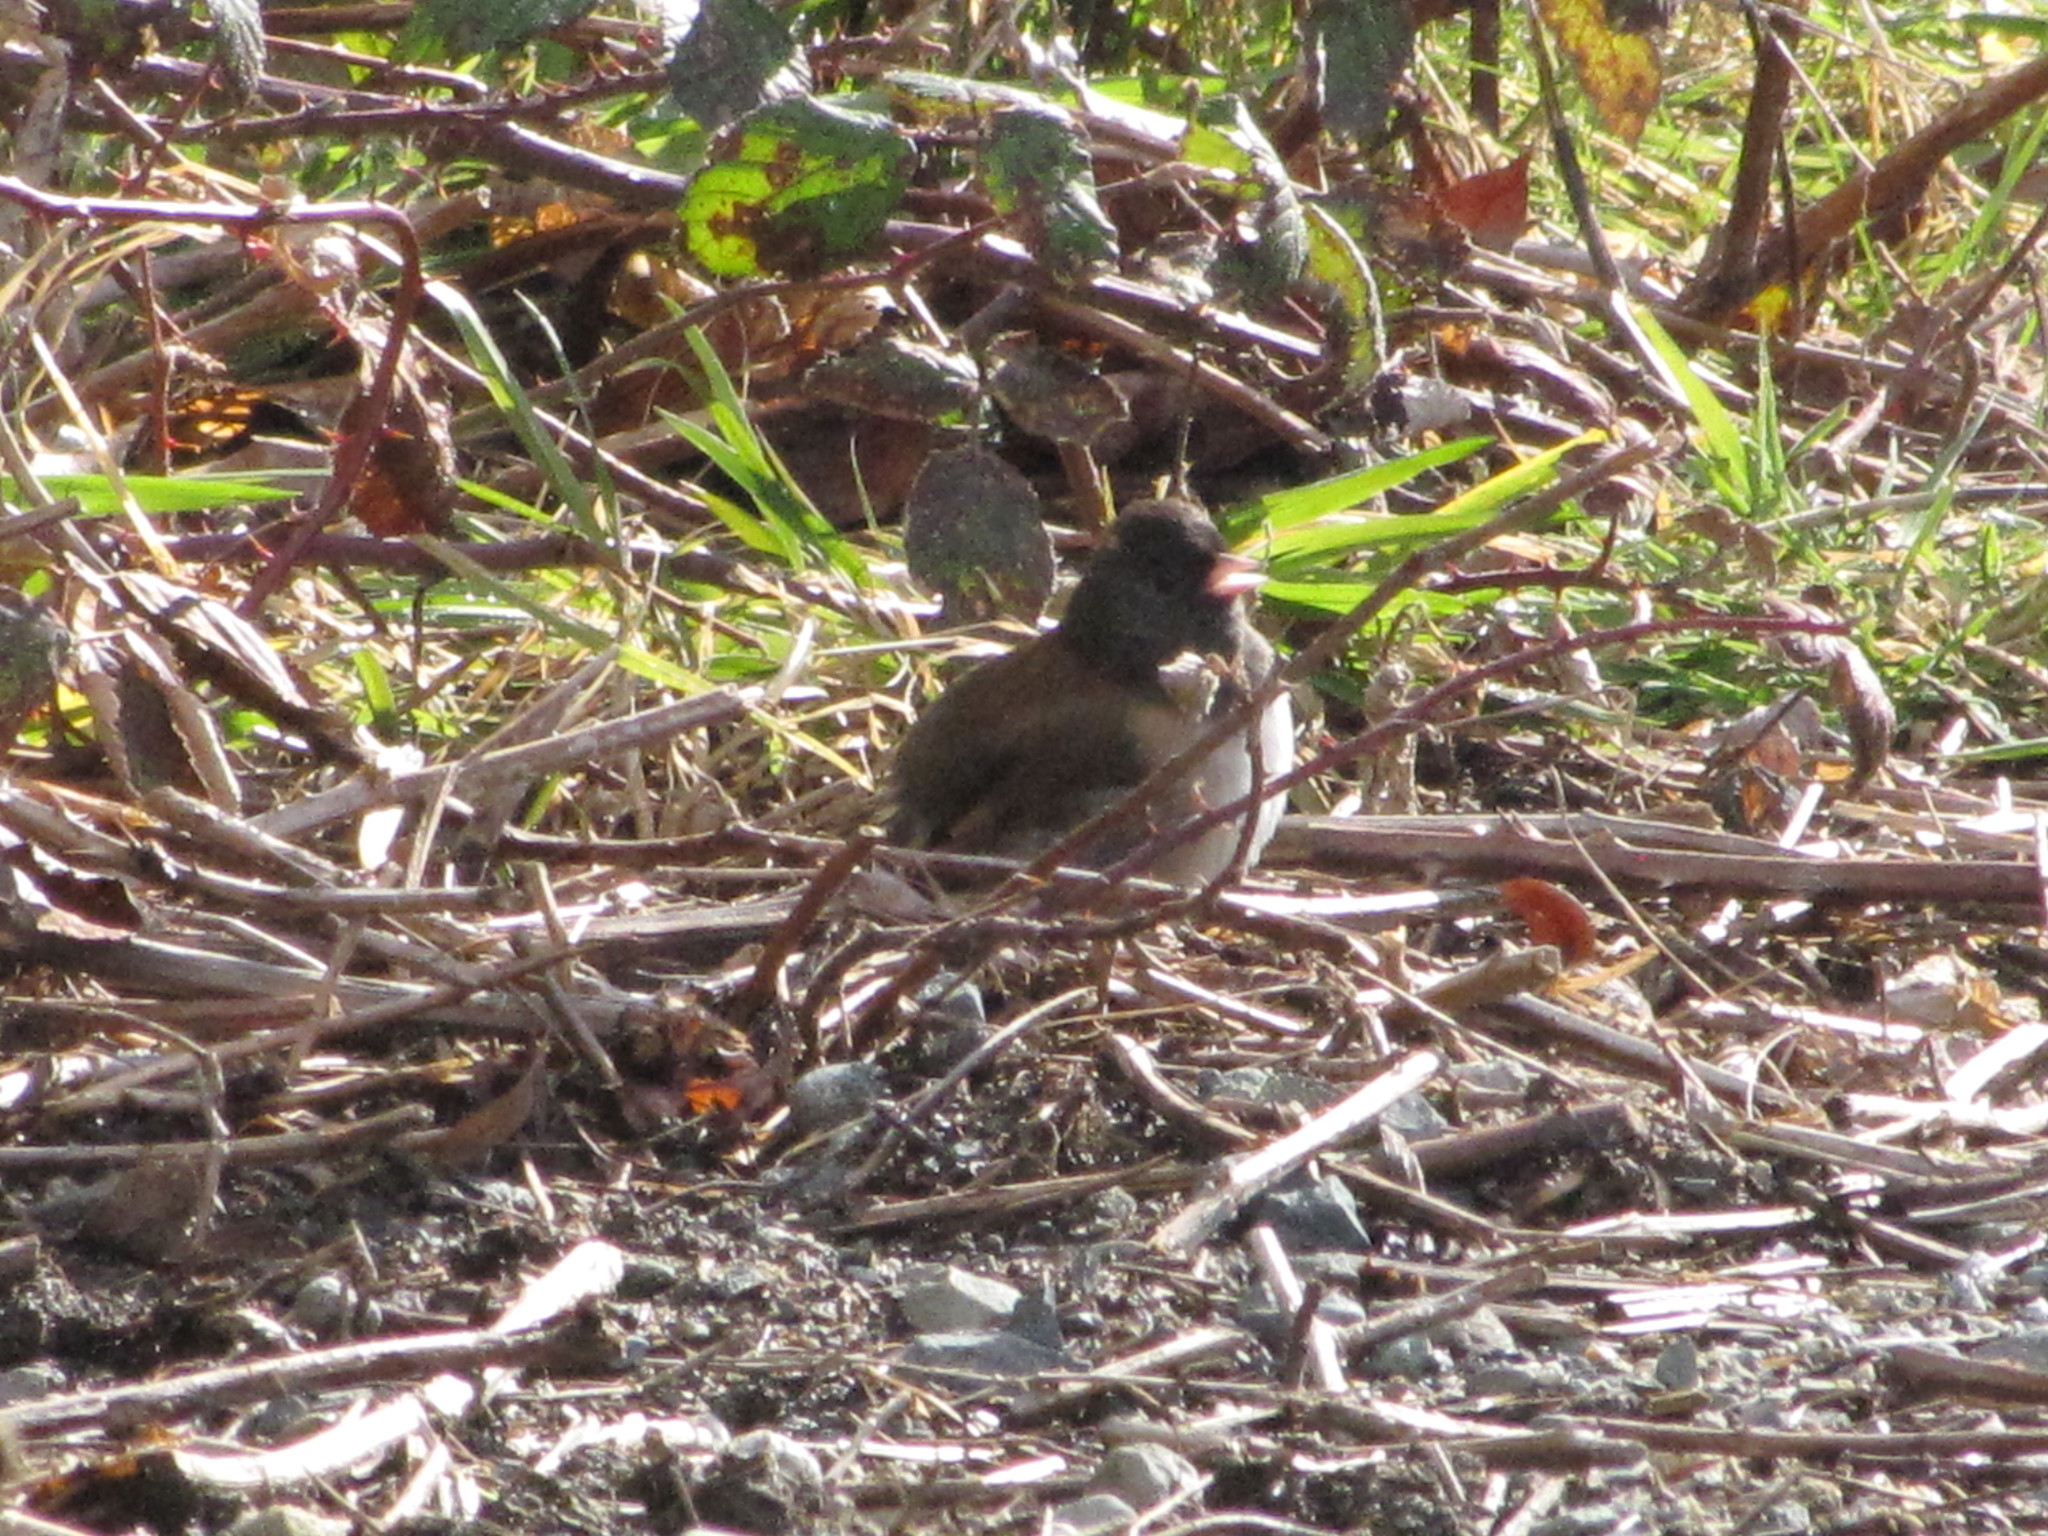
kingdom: Animalia
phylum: Chordata
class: Aves
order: Passeriformes
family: Passerellidae
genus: Junco
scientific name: Junco hyemalis
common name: Dark-eyed junco
